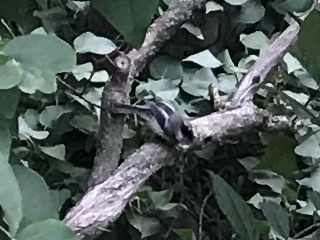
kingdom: Animalia
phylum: Chordata
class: Aves
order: Passeriformes
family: Paridae
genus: Poecile
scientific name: Poecile atricapillus
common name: Black-capped chickadee
